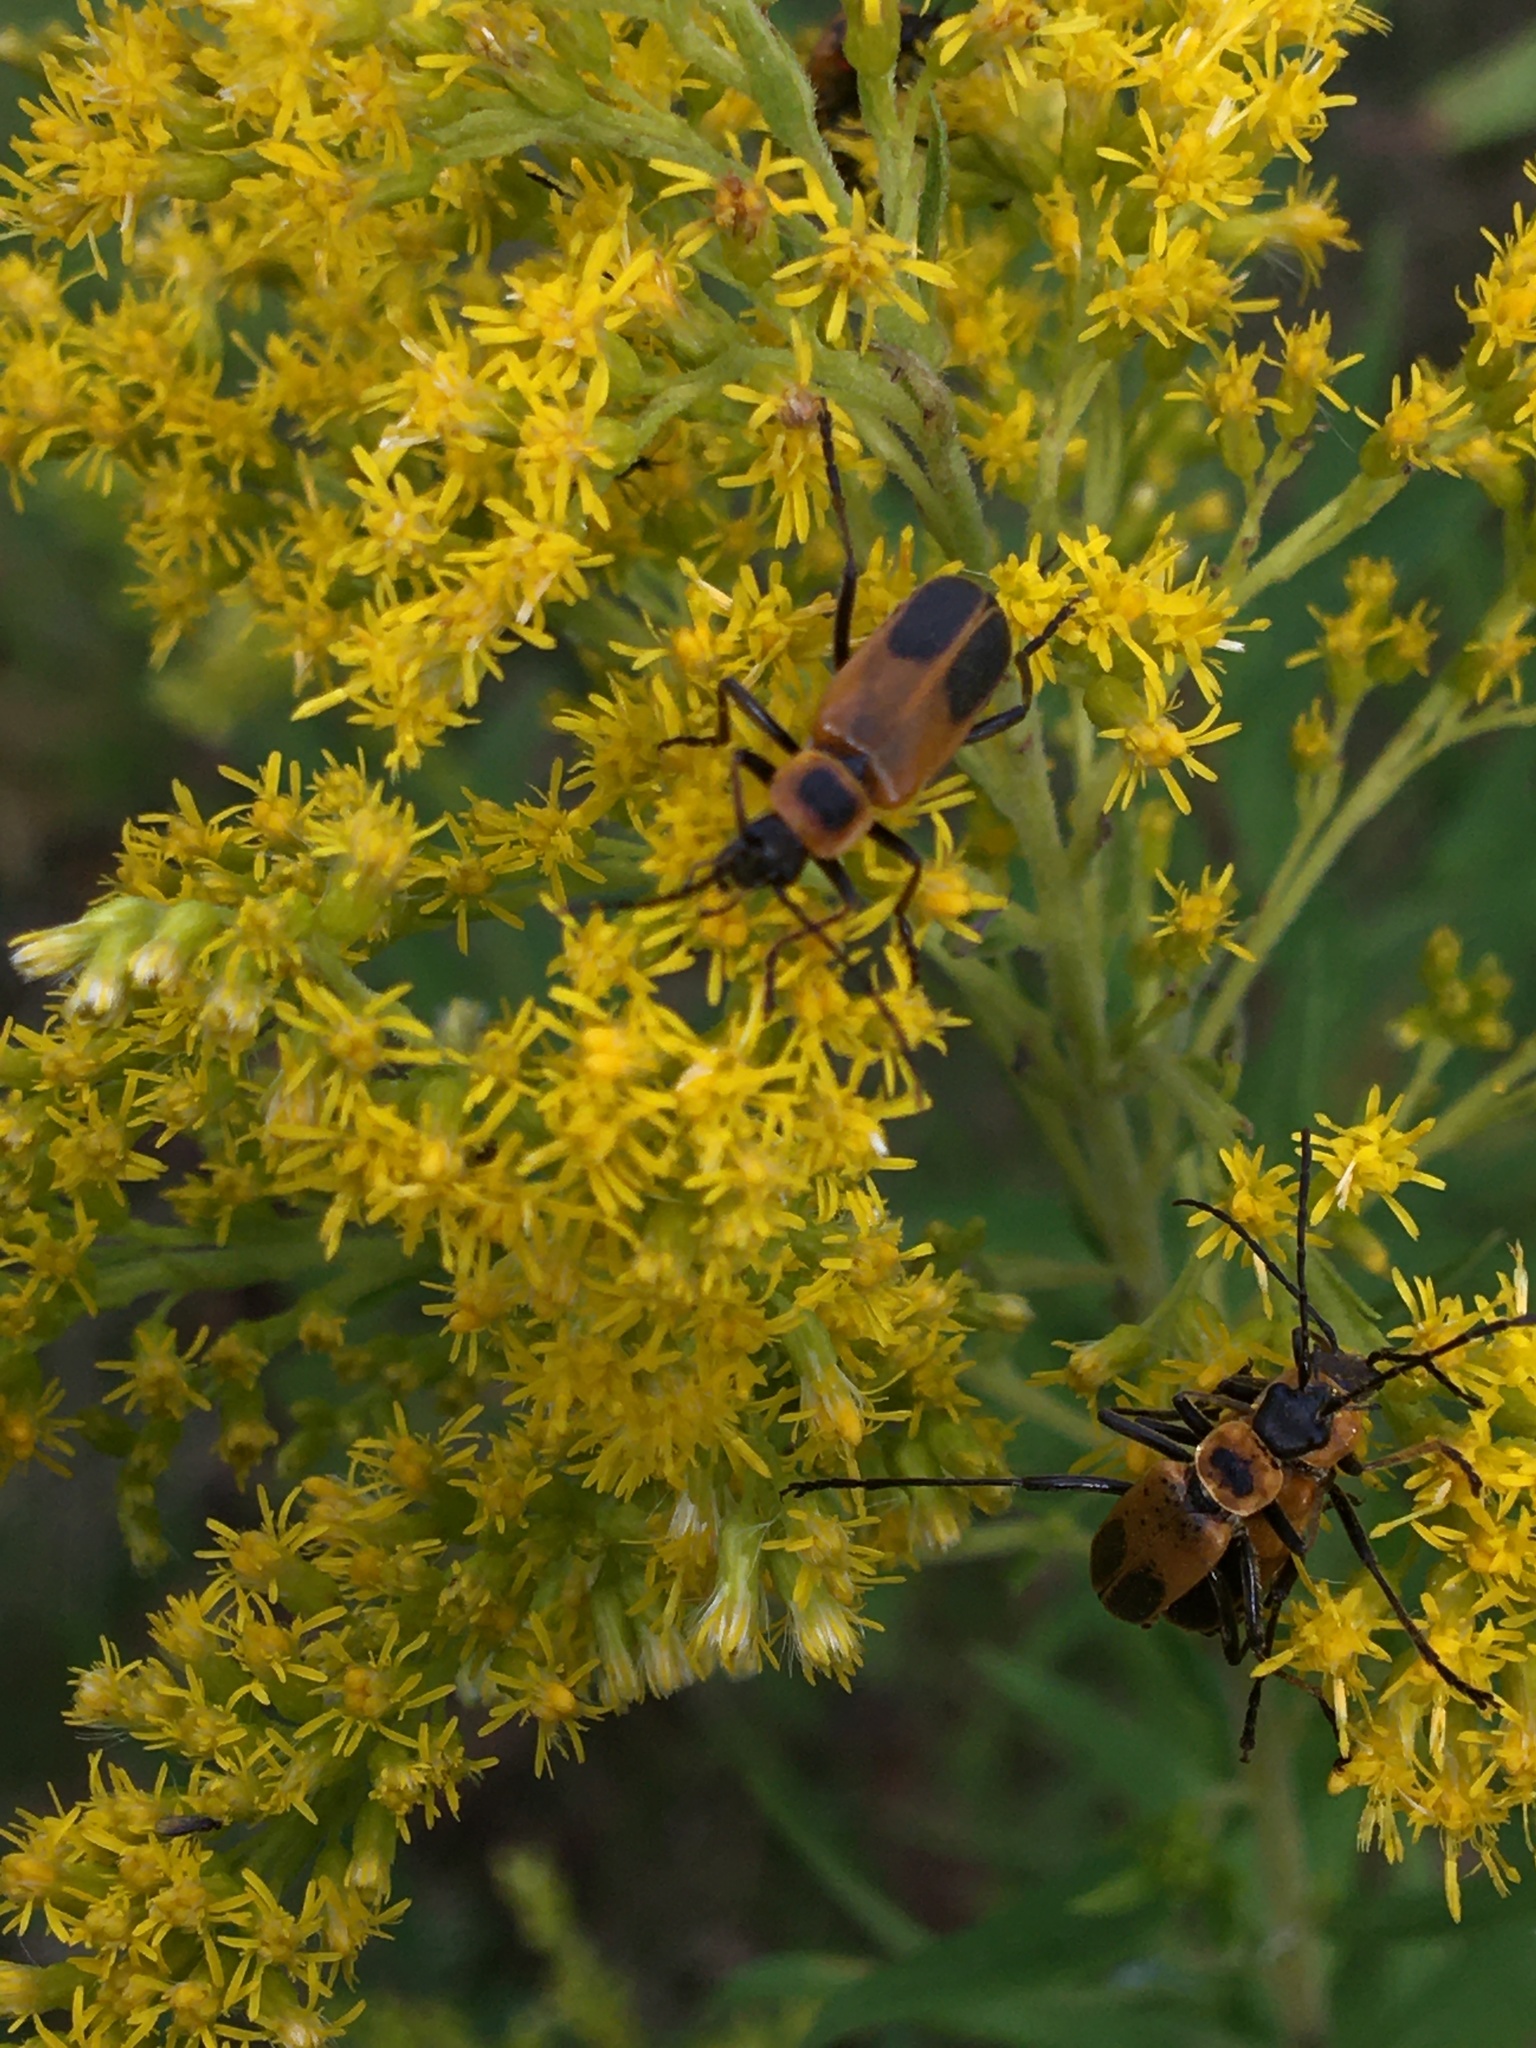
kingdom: Animalia
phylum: Arthropoda
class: Insecta
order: Coleoptera
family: Cantharidae
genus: Chauliognathus
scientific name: Chauliognathus pensylvanicus
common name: Goldenrod soldier beetle
